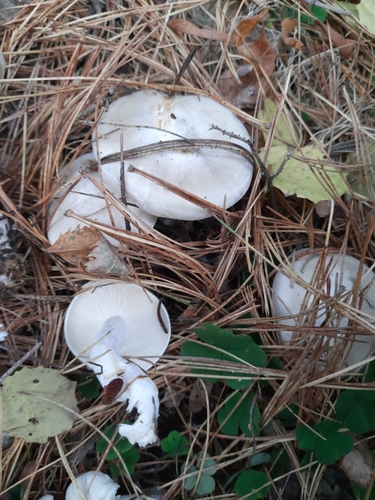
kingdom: Fungi
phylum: Basidiomycota
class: Agaricomycetes
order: Agaricales
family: Tricholomataceae
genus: Clitocybe
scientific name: Clitocybe nebularis
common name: Clouded agaric
